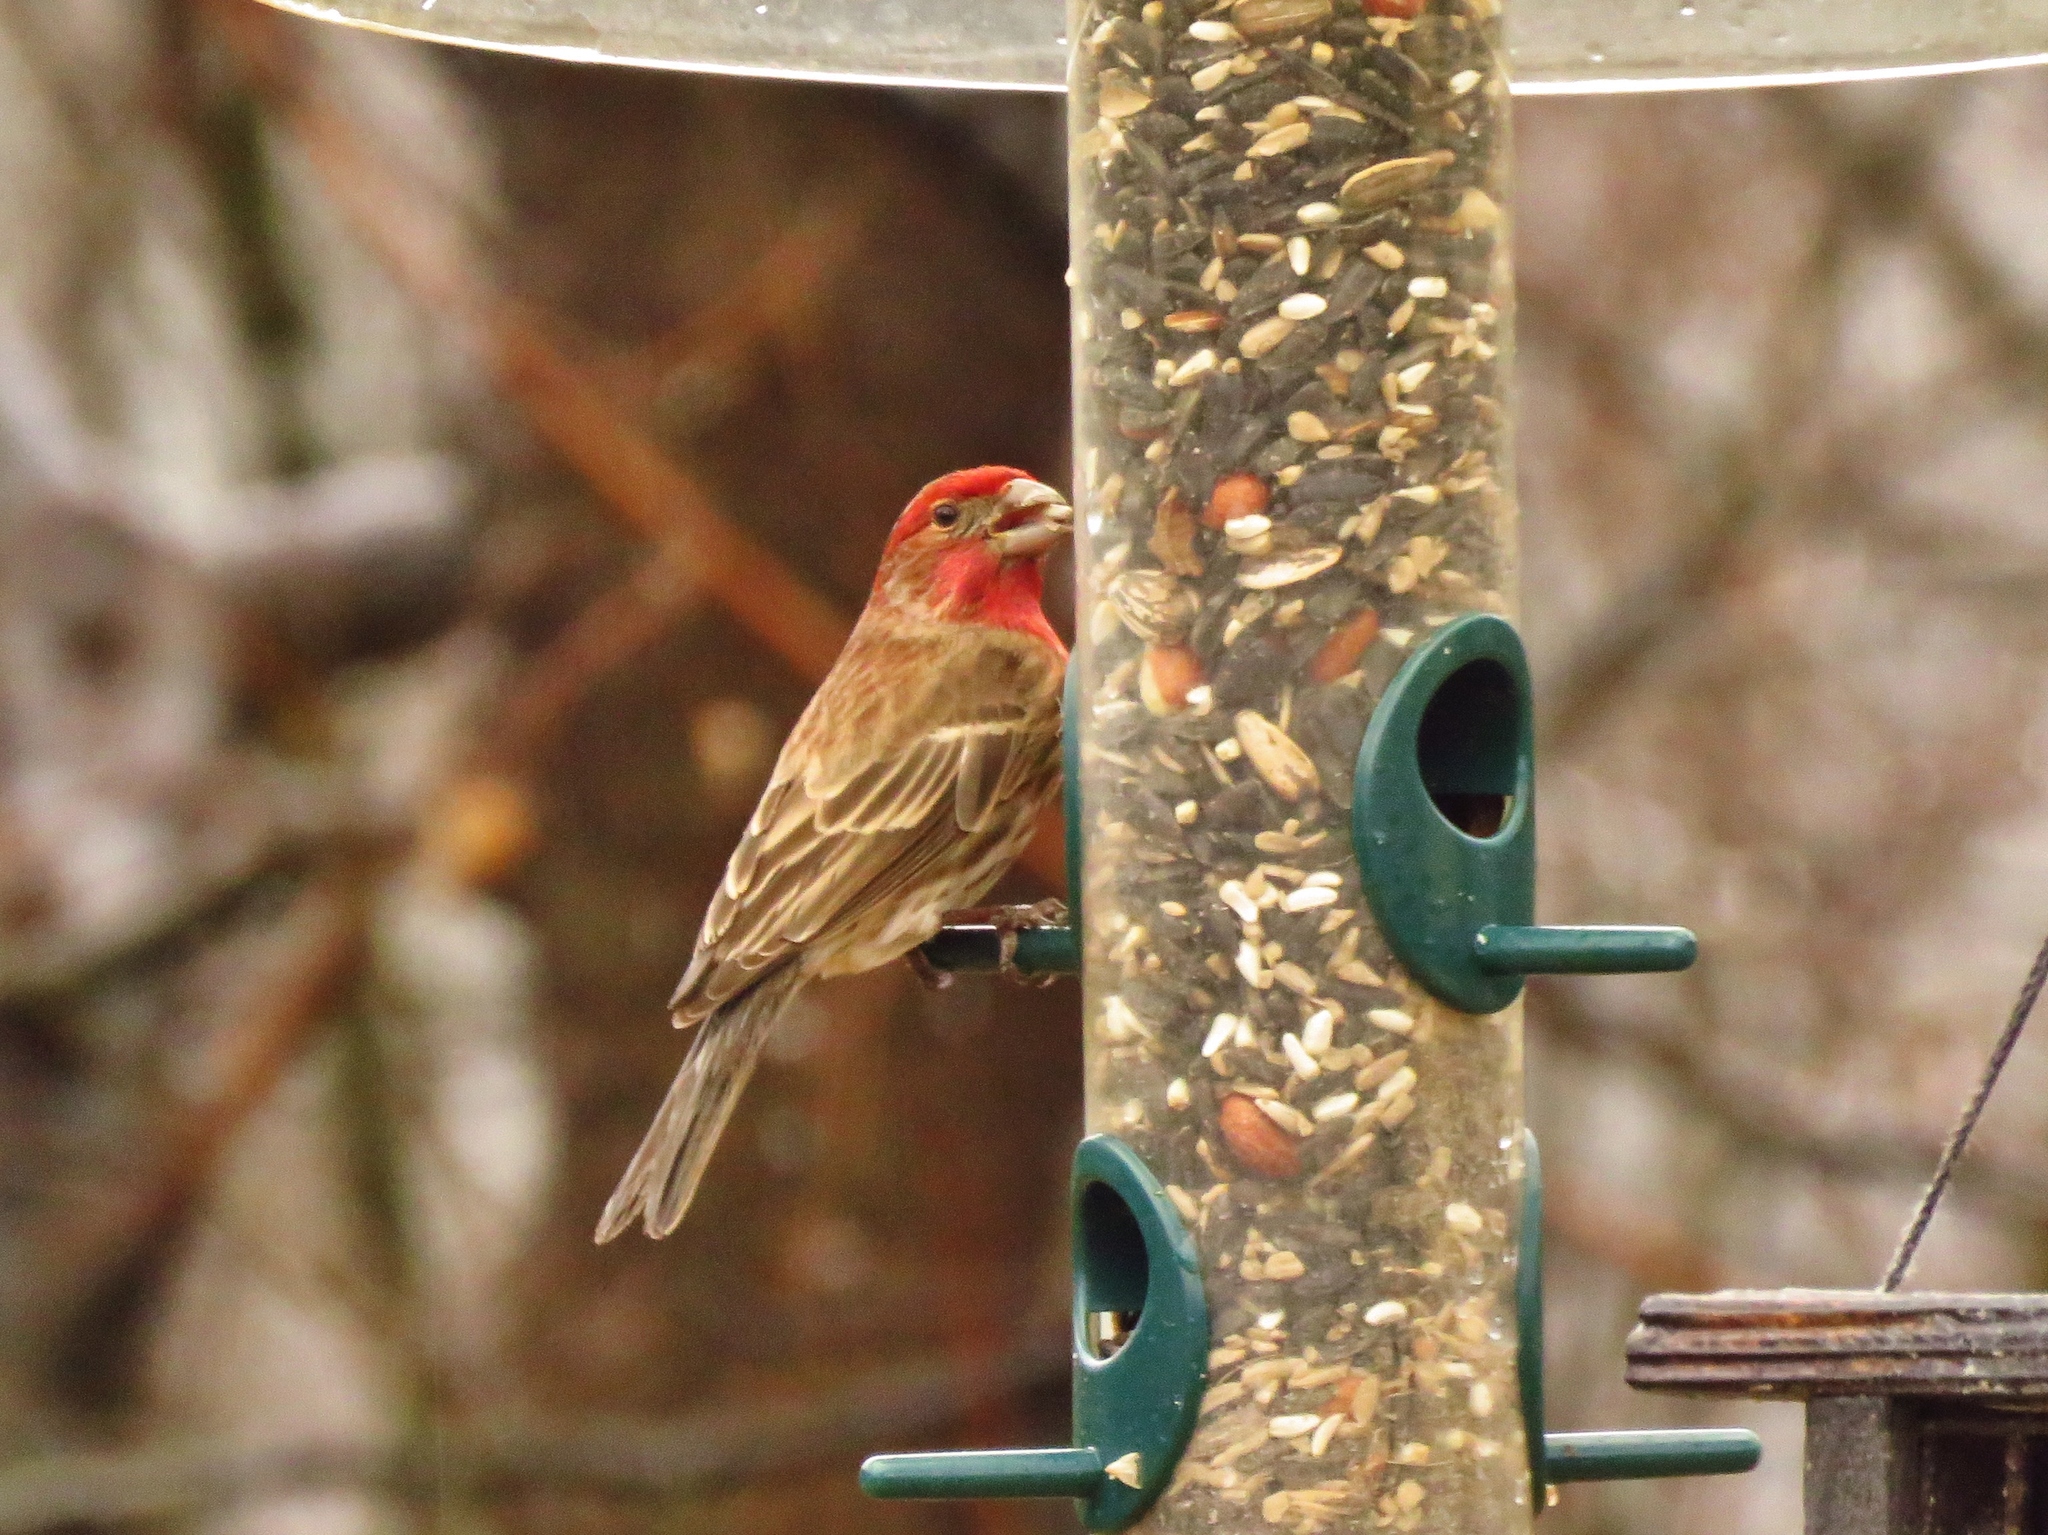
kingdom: Animalia
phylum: Chordata
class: Aves
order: Passeriformes
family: Fringillidae
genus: Haemorhous
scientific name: Haemorhous mexicanus
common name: House finch
